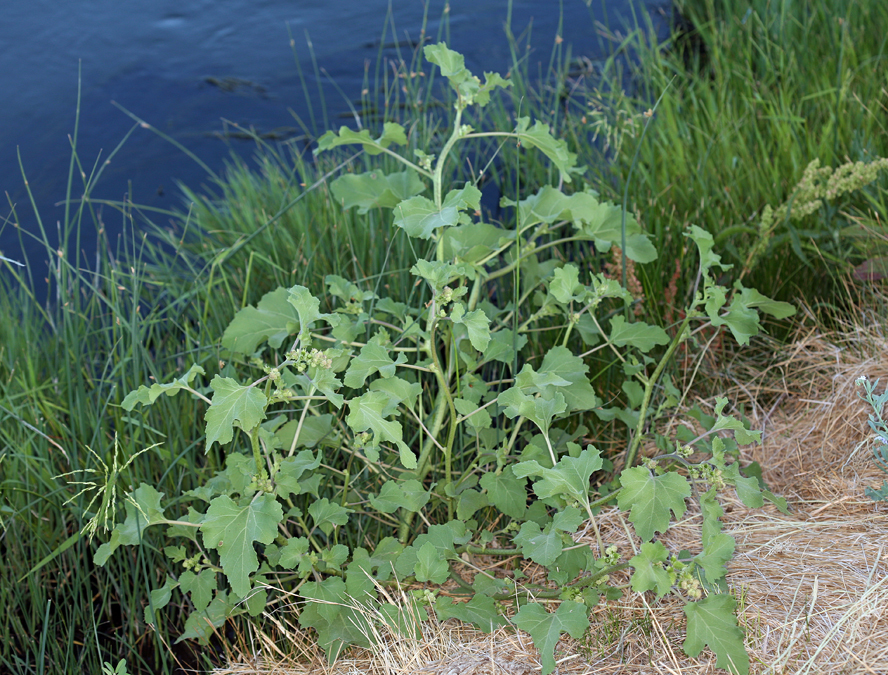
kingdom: Plantae
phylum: Tracheophyta
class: Magnoliopsida
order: Asterales
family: Asteraceae
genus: Xanthium
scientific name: Xanthium strumarium
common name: Rough cocklebur
